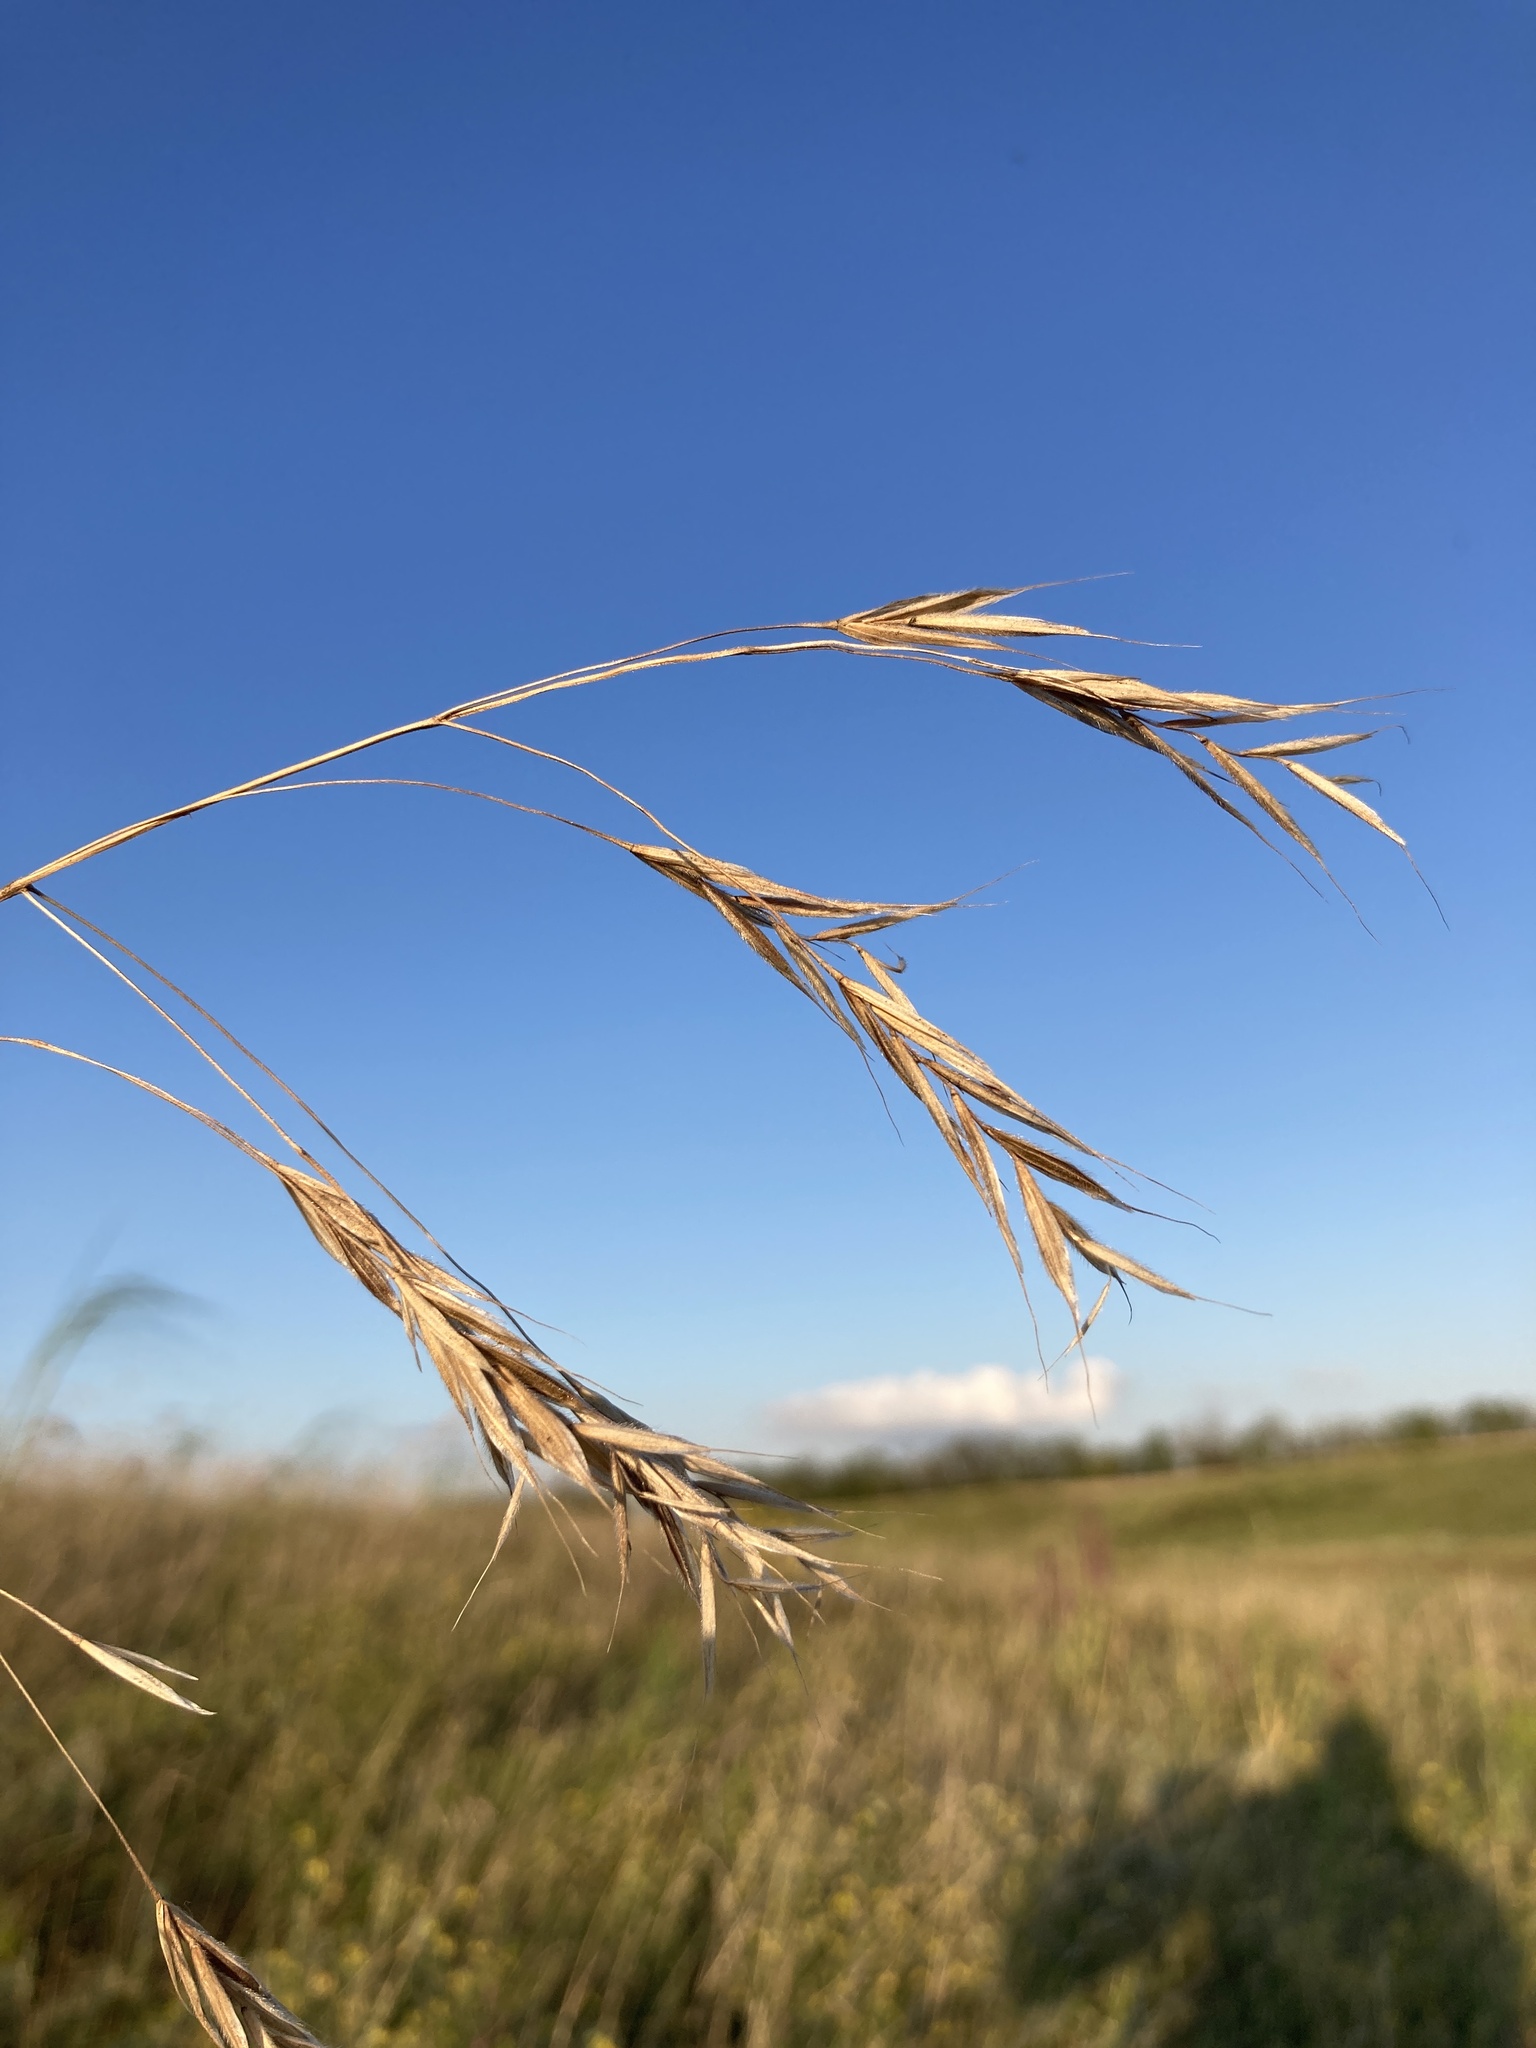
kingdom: Plantae
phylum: Tracheophyta
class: Liliopsida
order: Poales
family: Poaceae
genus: Bromus
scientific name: Bromus riparius
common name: Meadow brome
